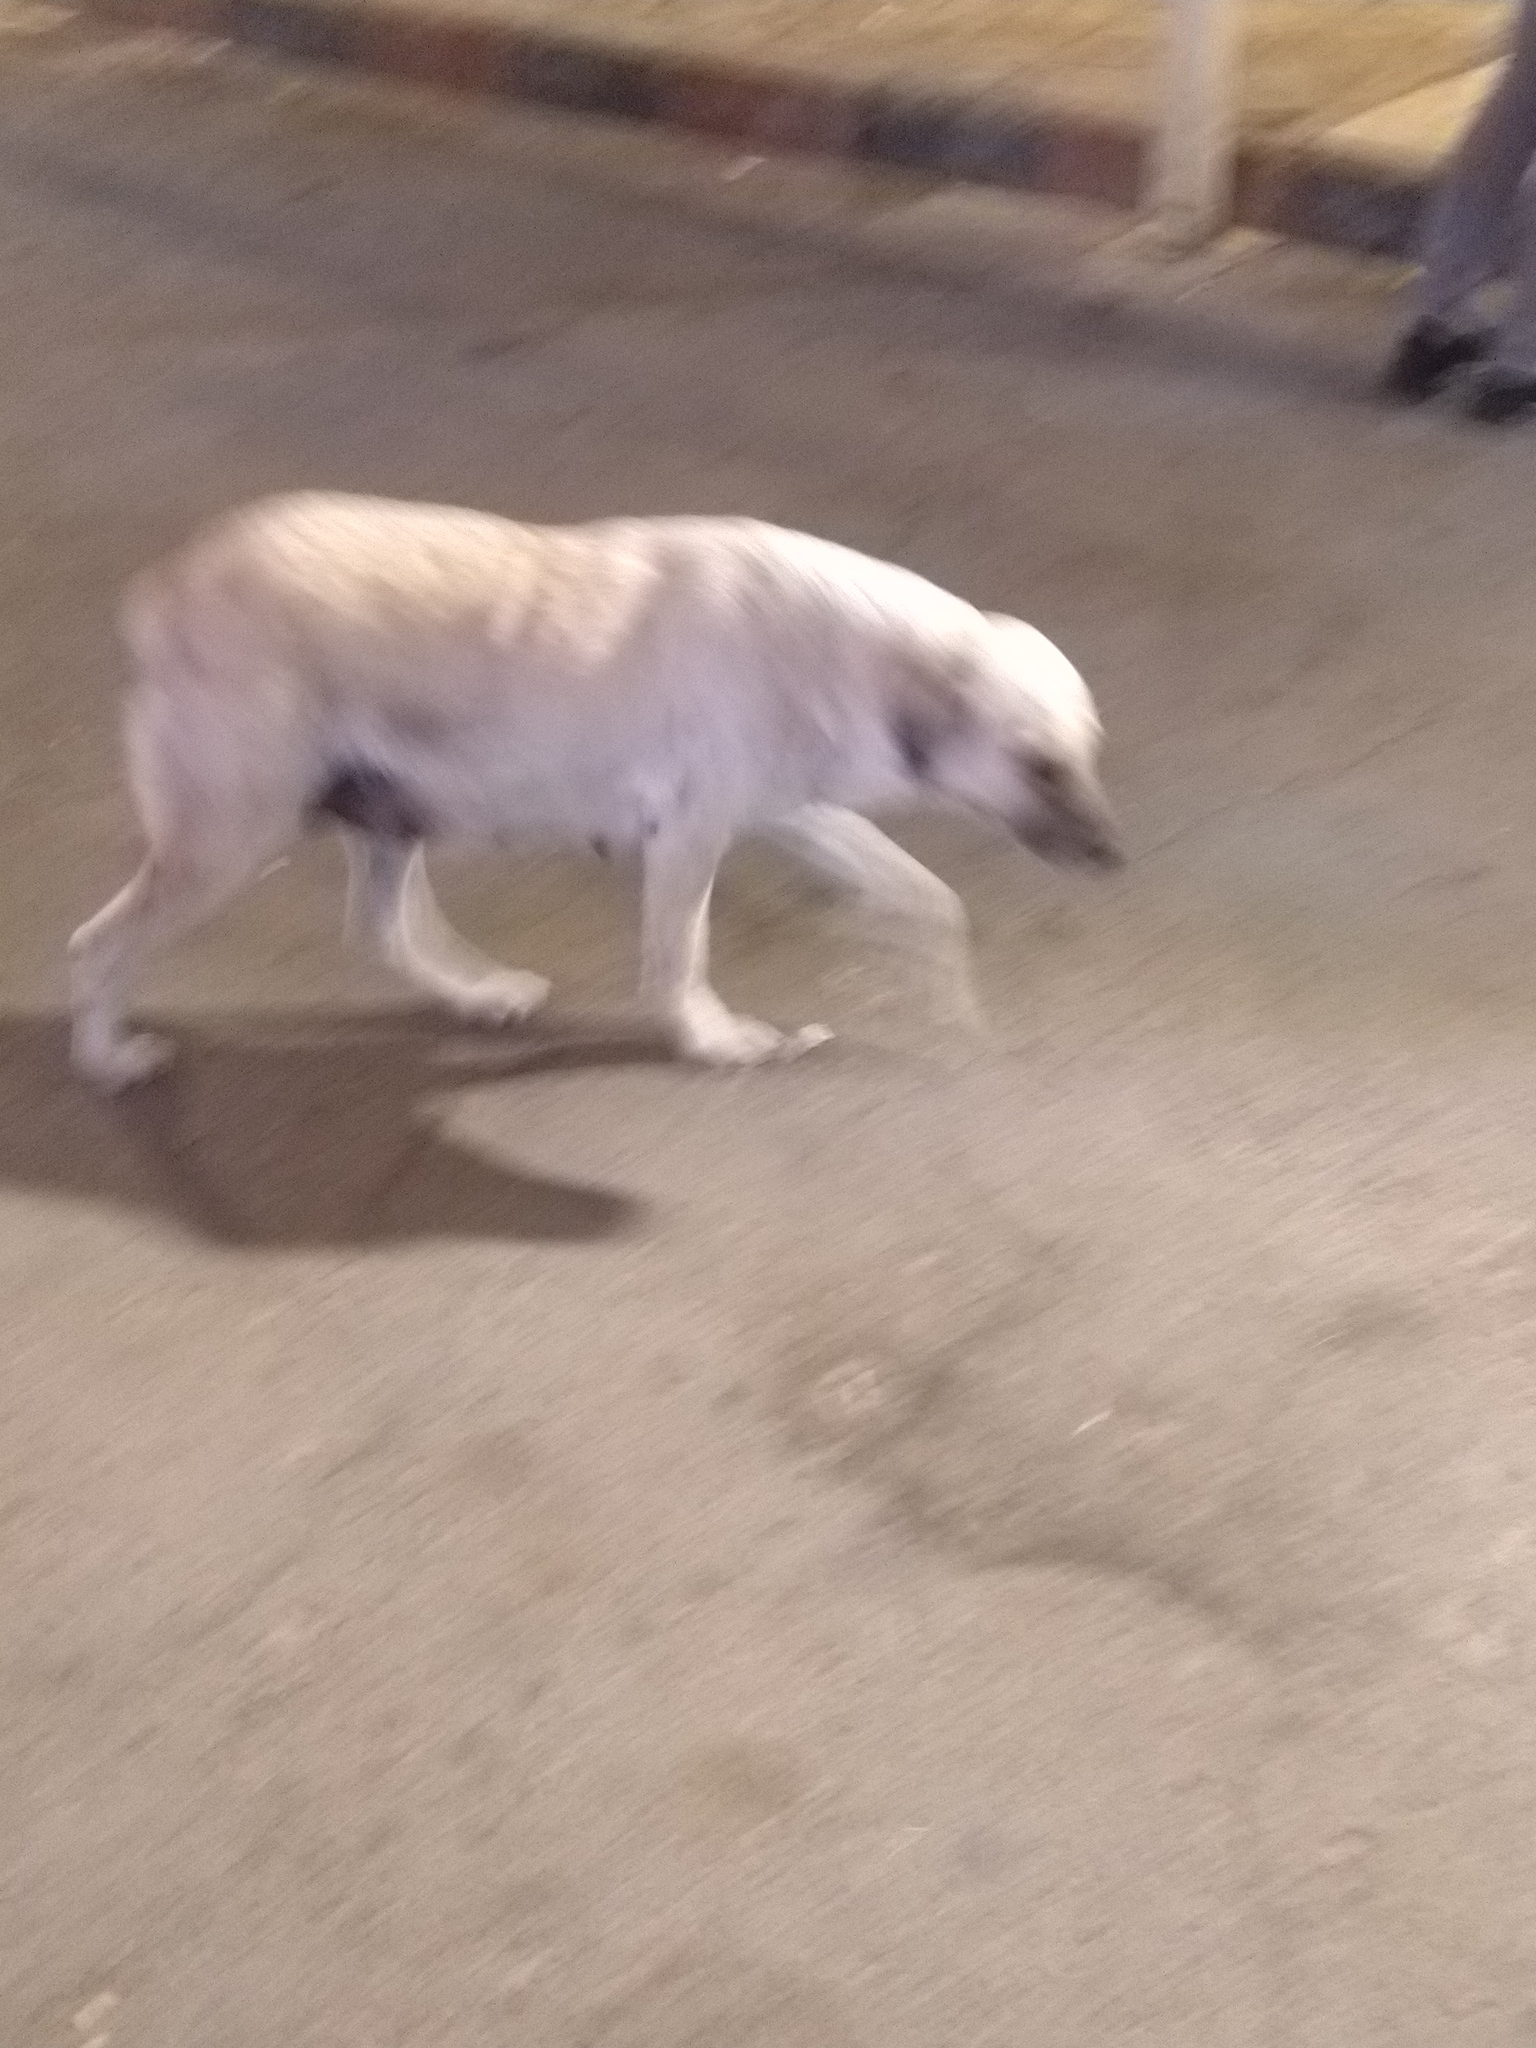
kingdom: Animalia
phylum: Chordata
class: Mammalia
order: Carnivora
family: Canidae
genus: Canis
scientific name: Canis lupus
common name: Gray wolf
